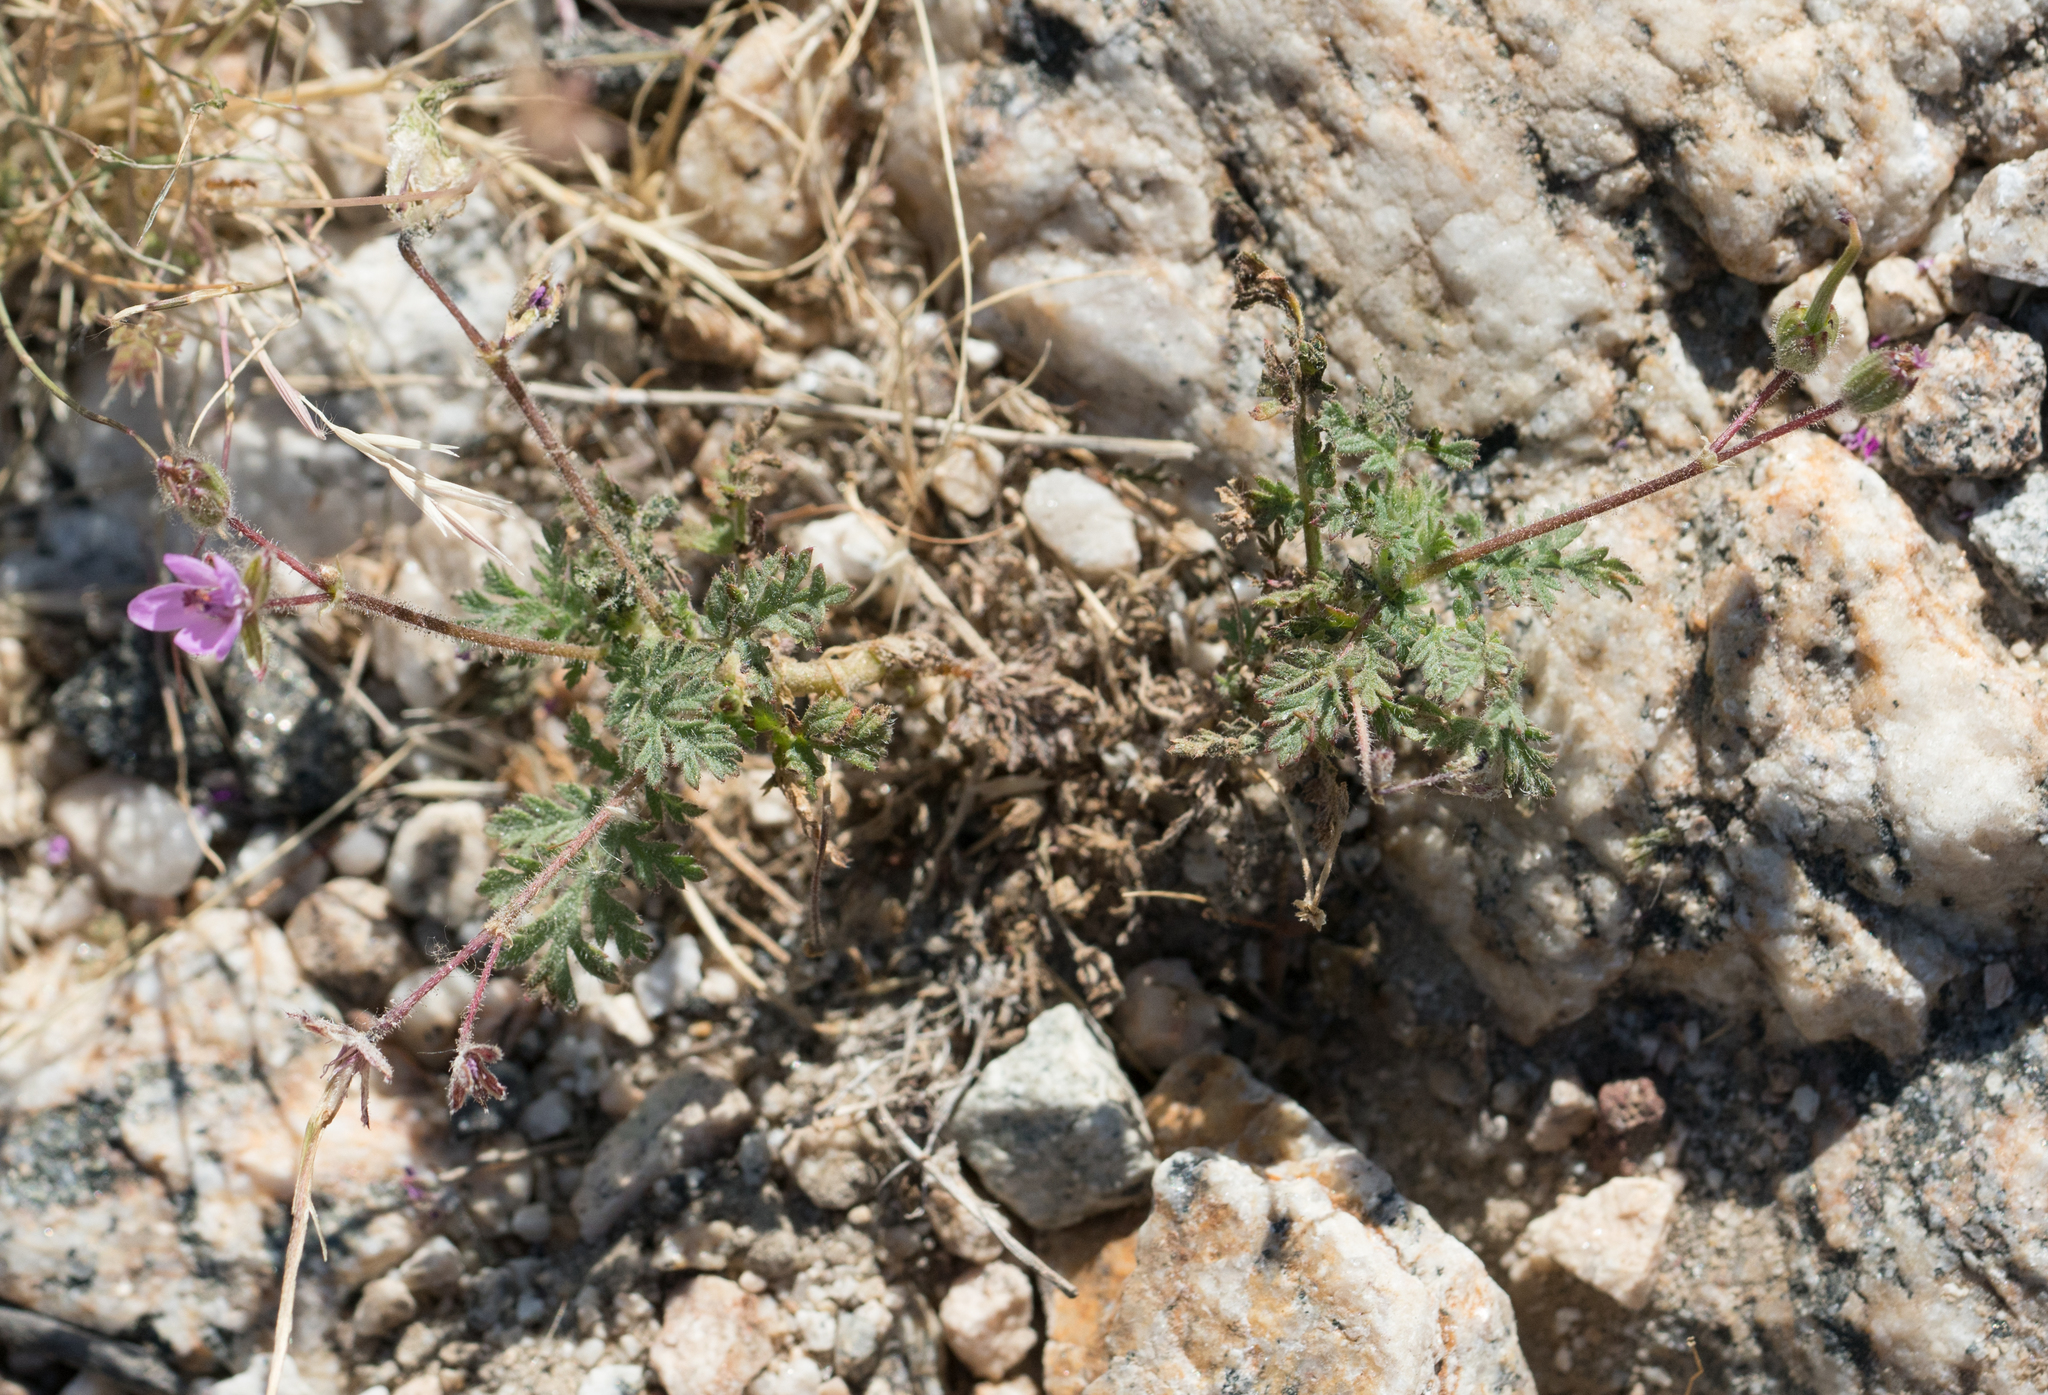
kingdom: Plantae
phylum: Tracheophyta
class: Magnoliopsida
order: Geraniales
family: Geraniaceae
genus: Erodium
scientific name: Erodium cicutarium
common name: Common stork's-bill
